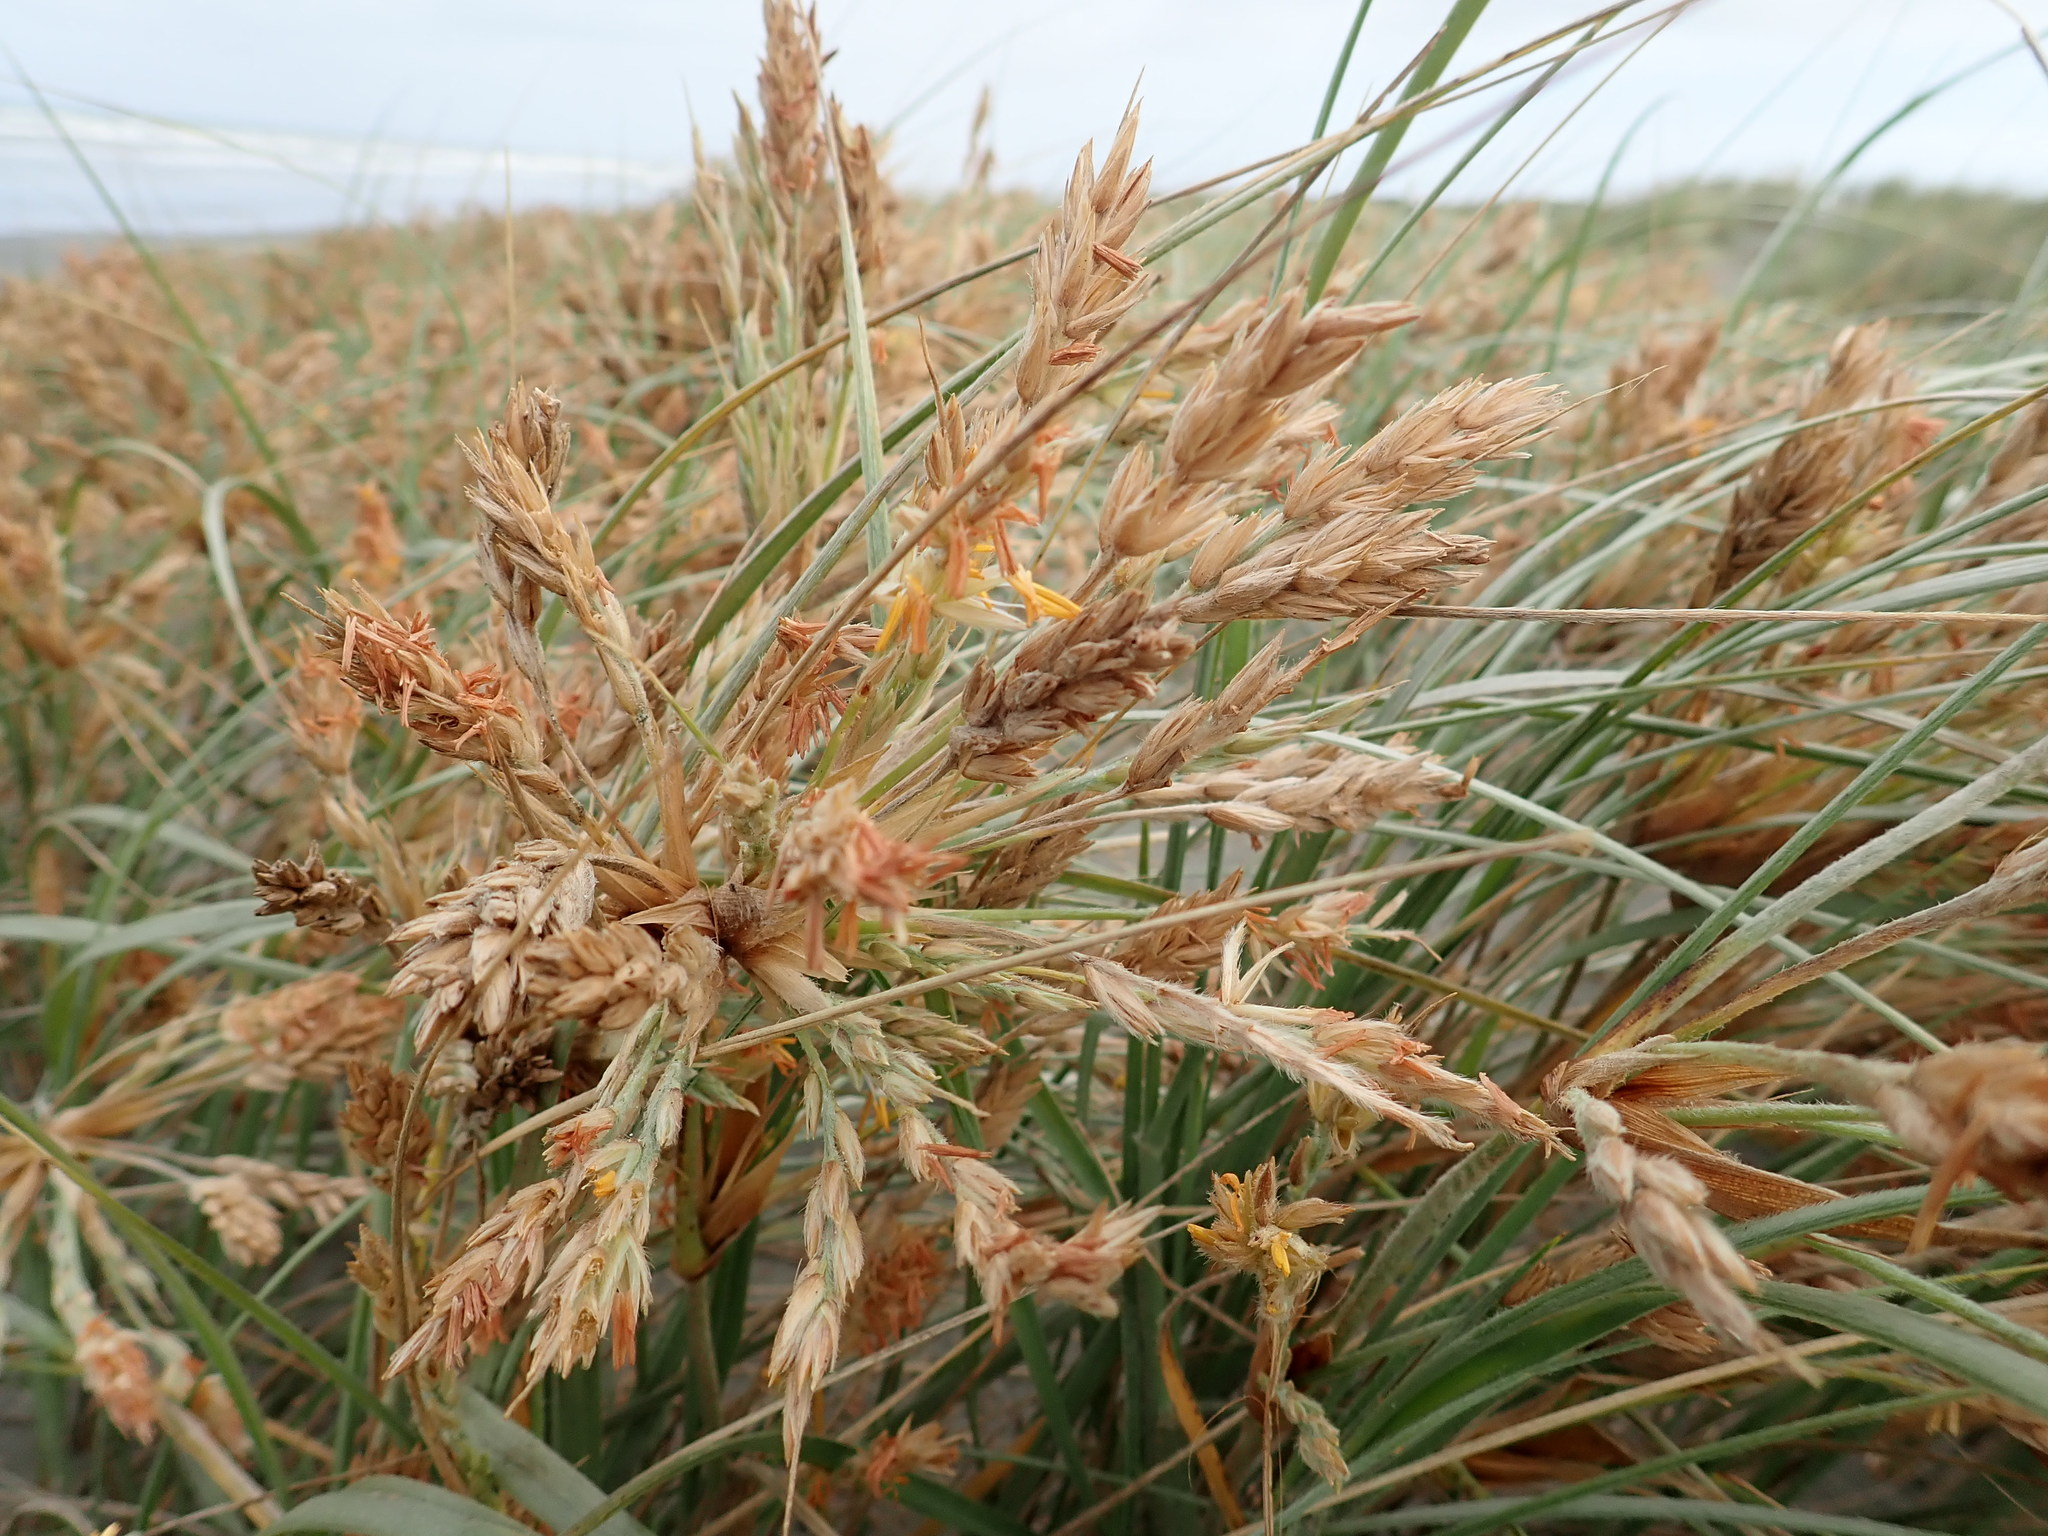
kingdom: Plantae
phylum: Tracheophyta
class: Liliopsida
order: Poales
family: Poaceae
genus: Spinifex
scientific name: Spinifex sericeus
